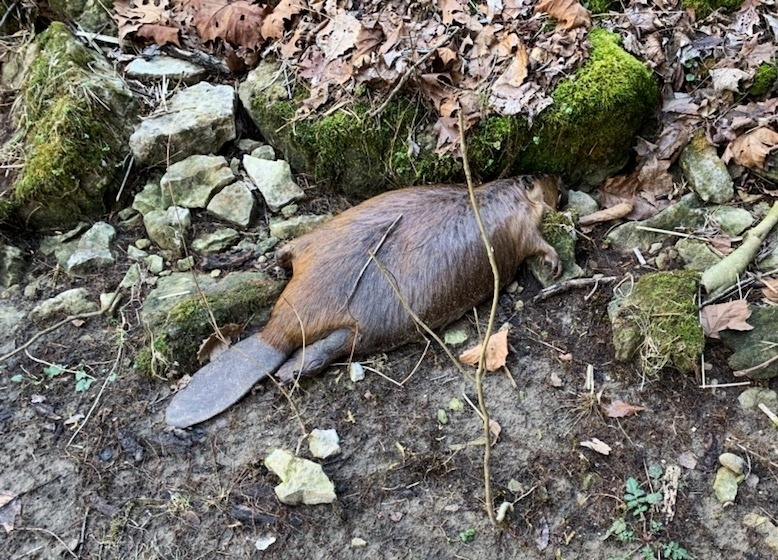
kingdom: Animalia
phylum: Chordata
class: Mammalia
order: Rodentia
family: Castoridae
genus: Castor
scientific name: Castor canadensis
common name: American beaver
